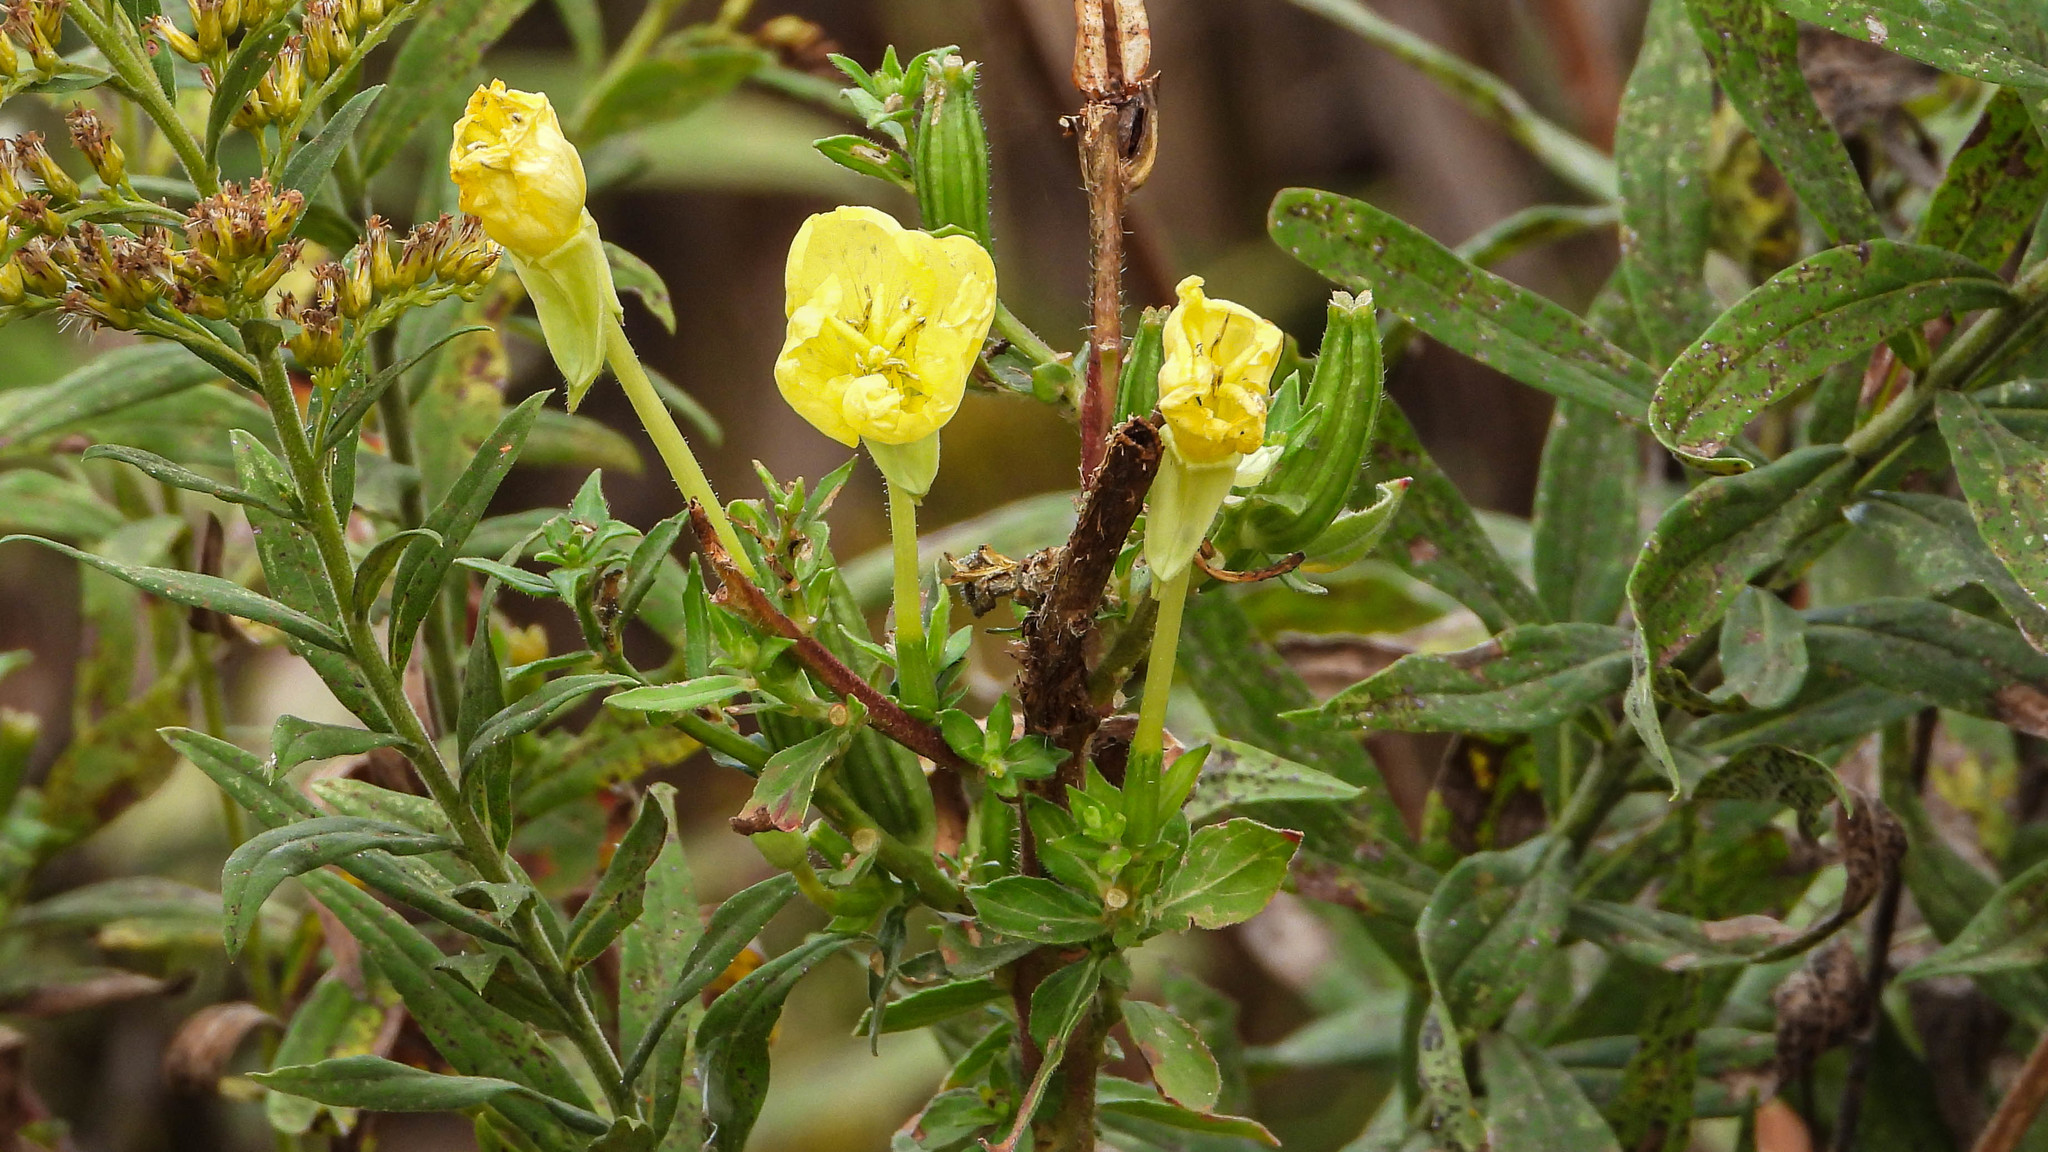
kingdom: Plantae
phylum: Tracheophyta
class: Magnoliopsida
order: Myrtales
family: Onagraceae
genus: Oenothera
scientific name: Oenothera biennis
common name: Common evening-primrose
